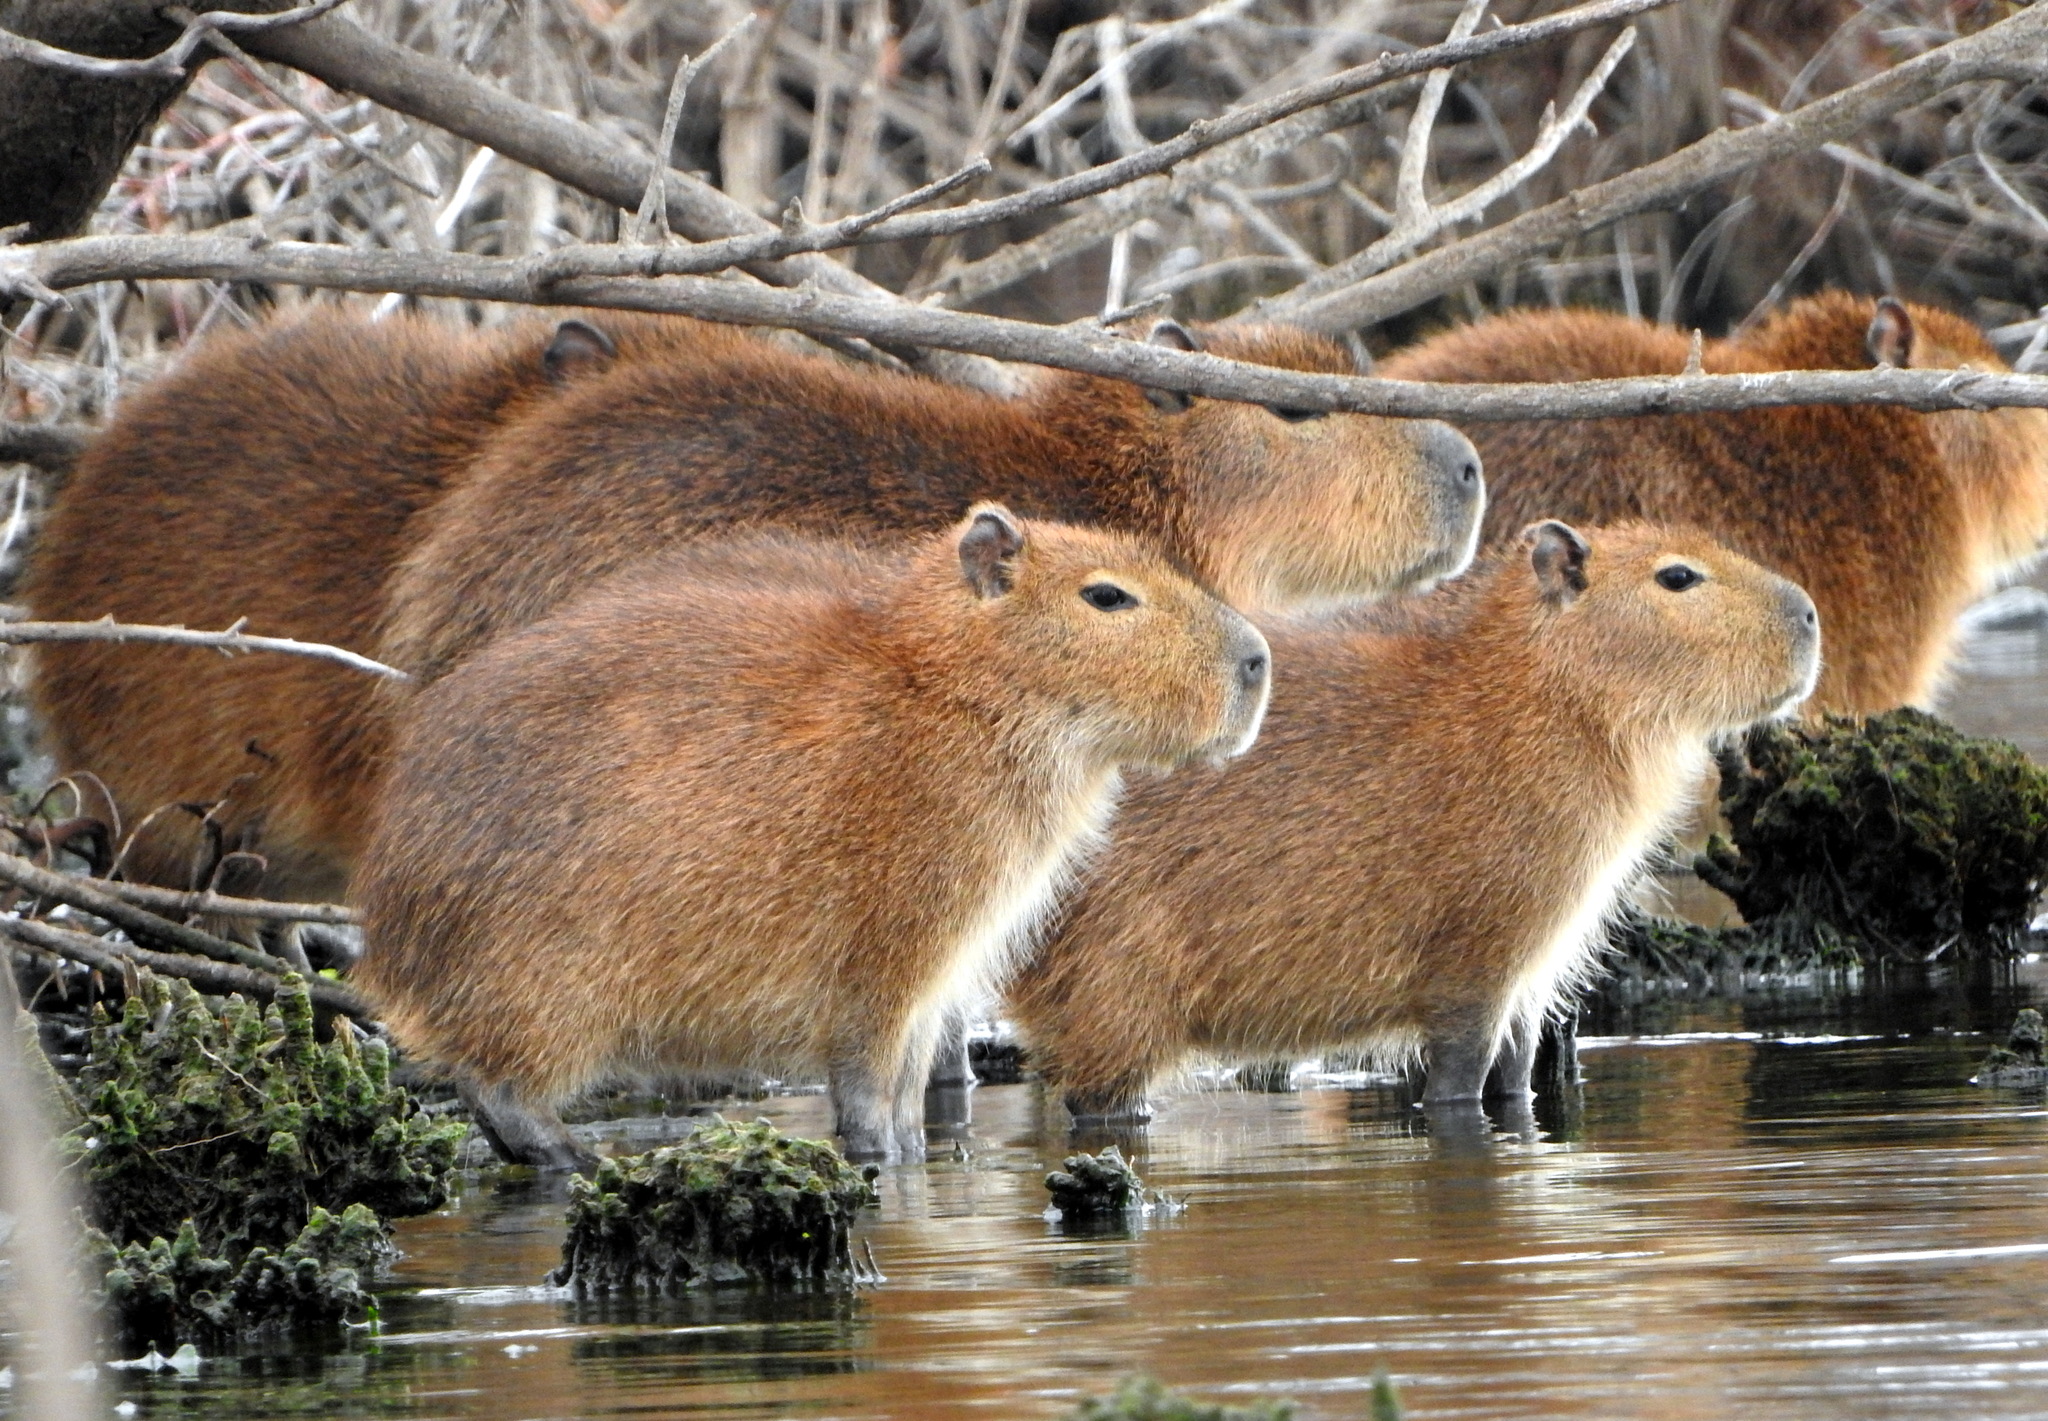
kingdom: Animalia
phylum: Chordata
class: Mammalia
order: Rodentia
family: Caviidae
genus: Hydrochoerus
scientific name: Hydrochoerus hydrochaeris
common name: Capybara
